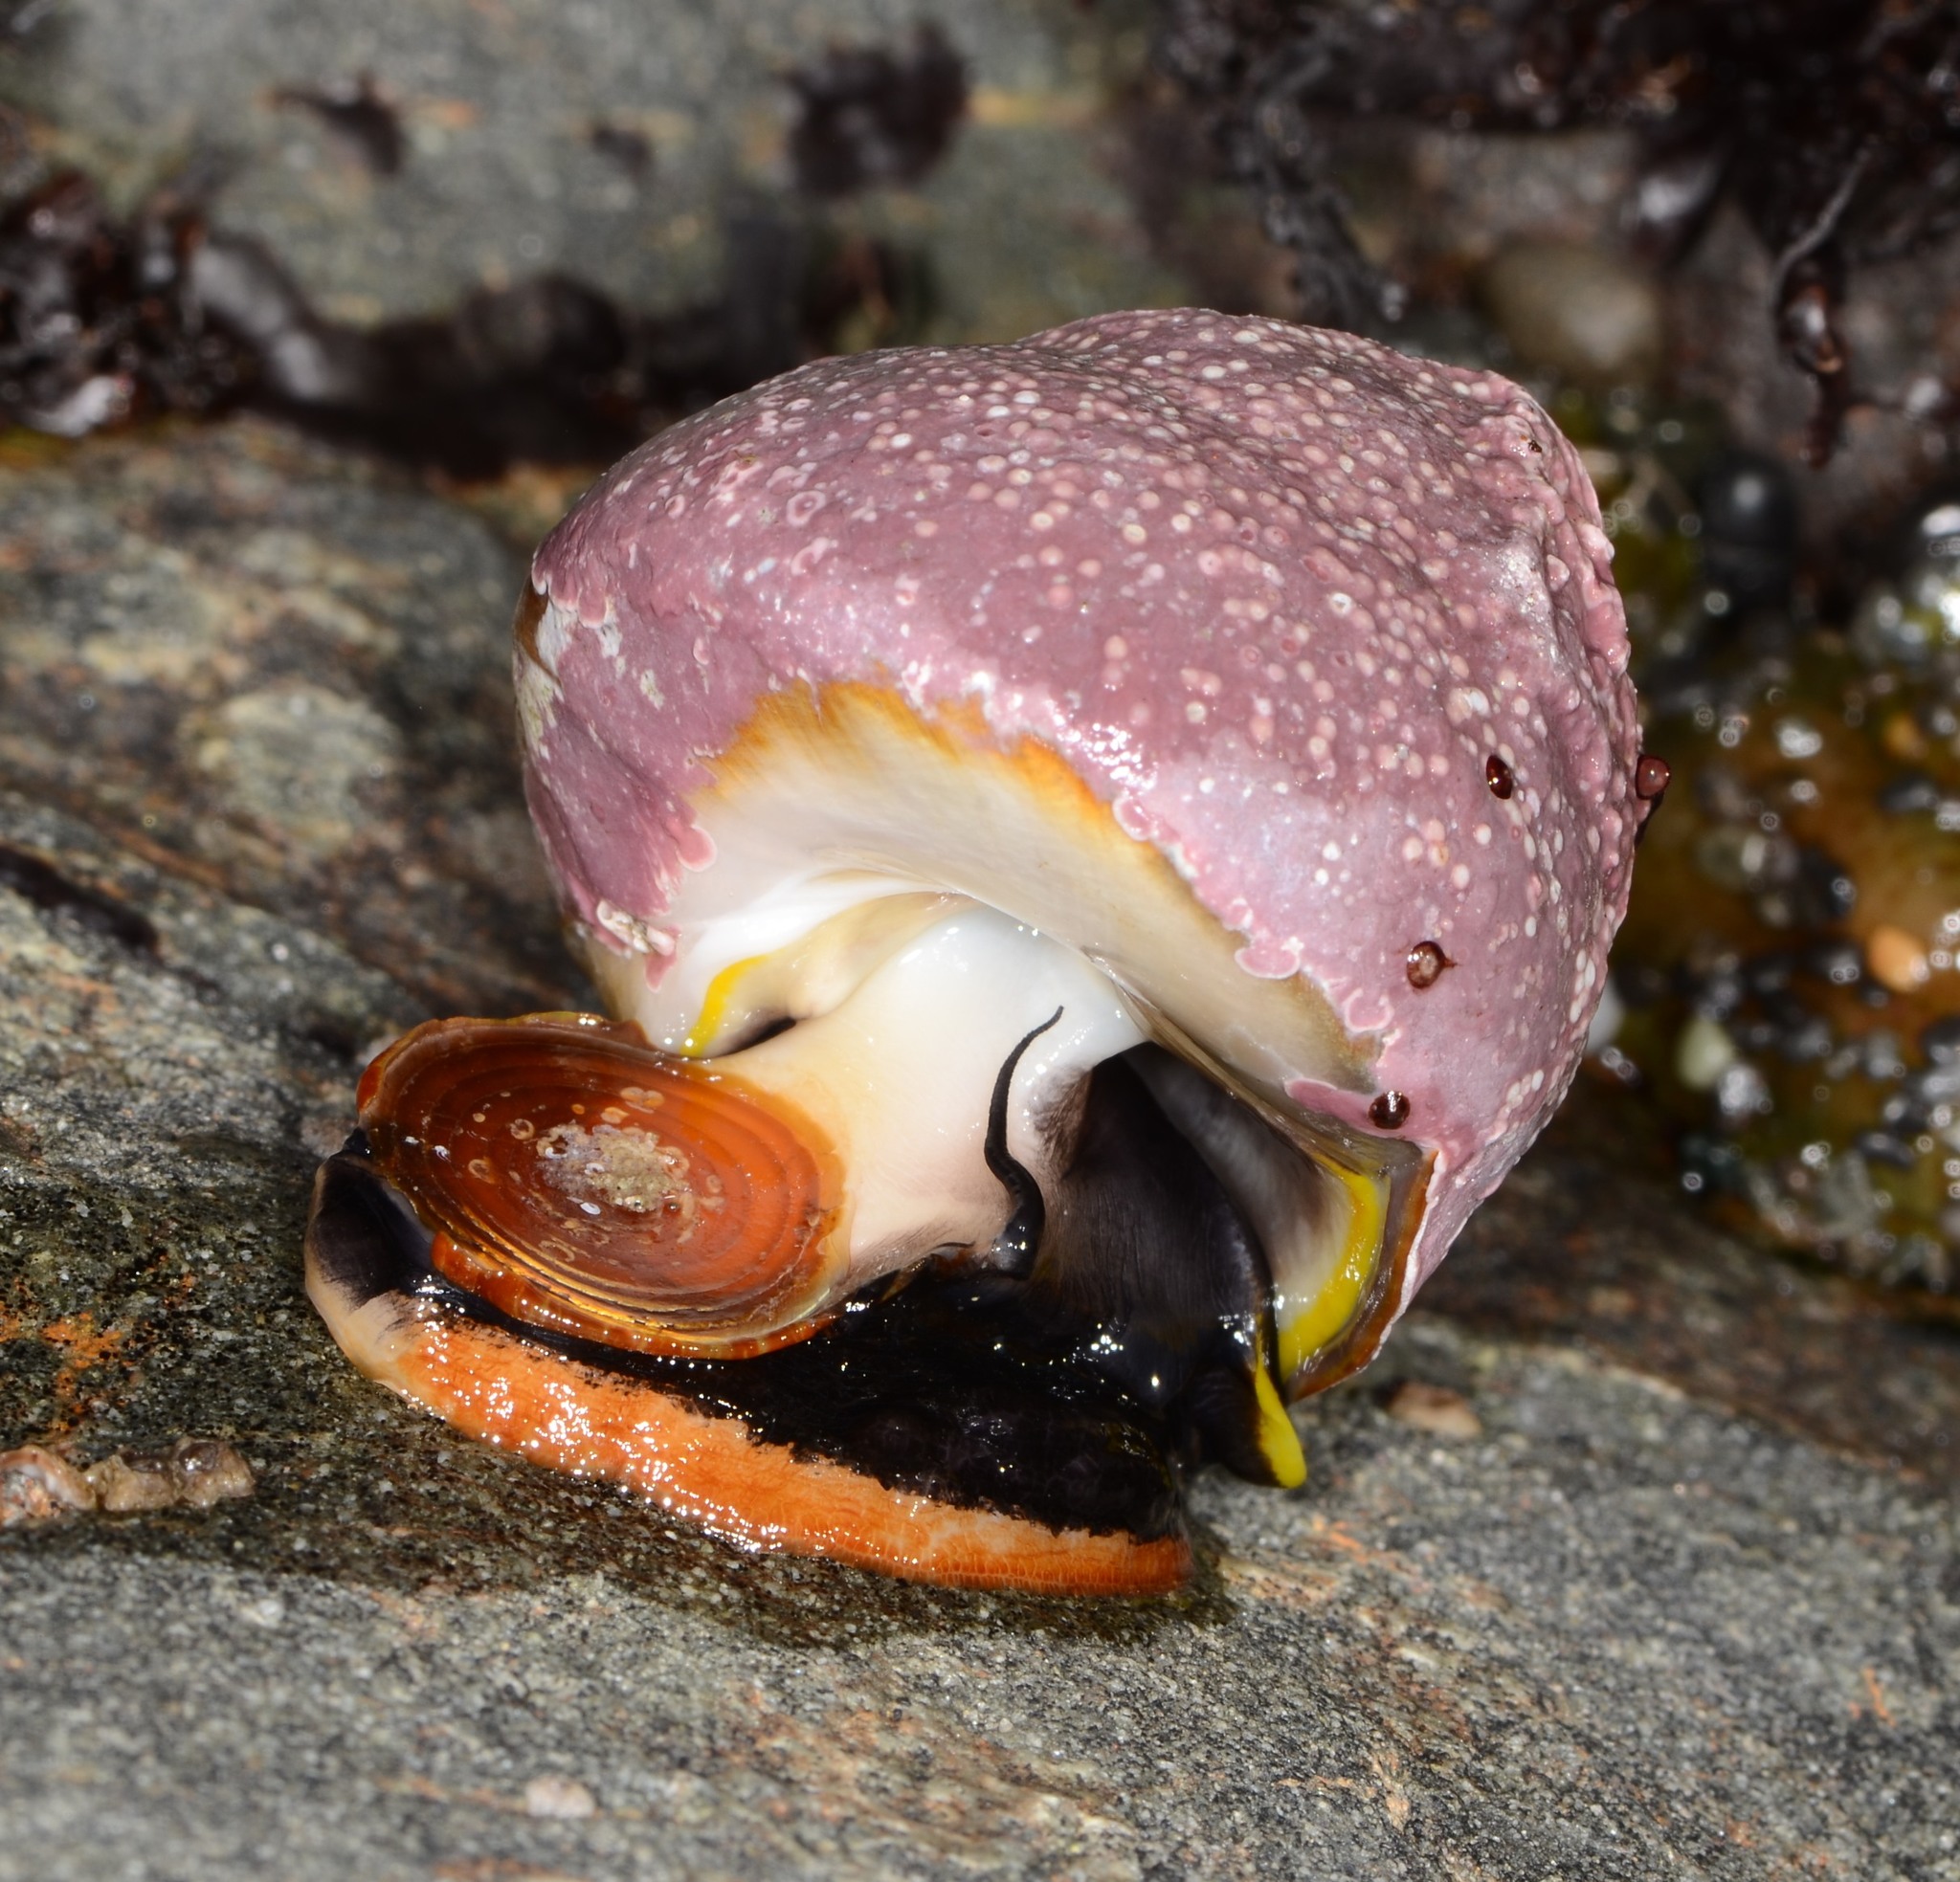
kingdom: Animalia
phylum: Mollusca
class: Gastropoda
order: Trochida
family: Tegulidae
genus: Tegula
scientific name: Tegula brunnea
